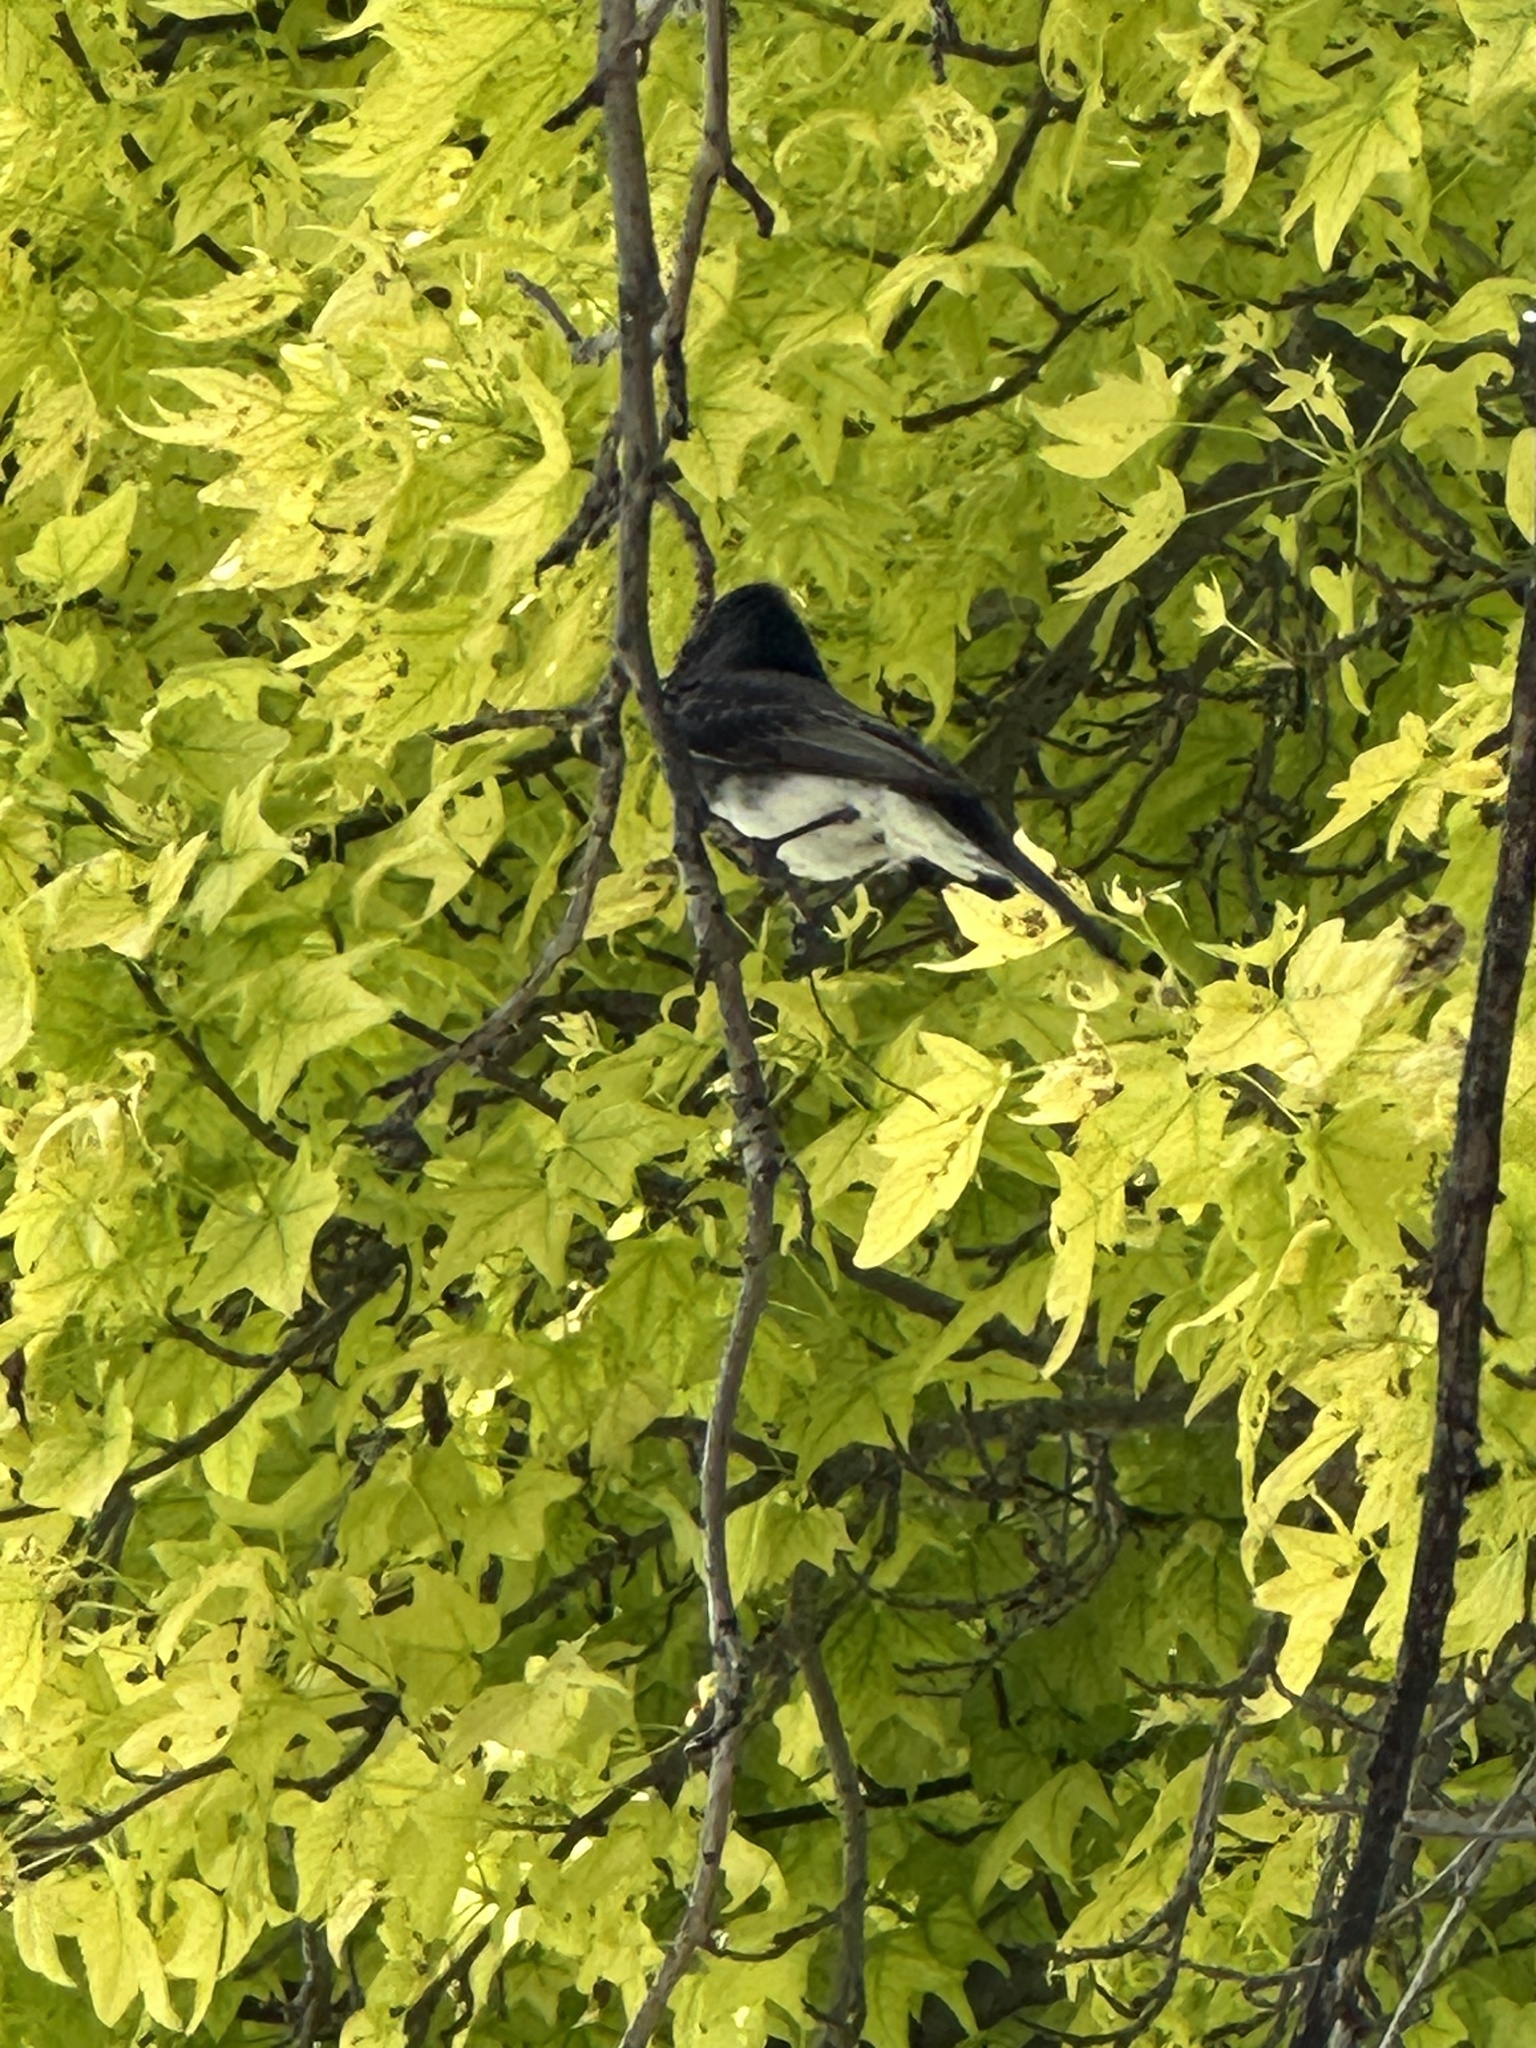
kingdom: Animalia
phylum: Chordata
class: Aves
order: Passeriformes
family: Tyrannidae
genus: Sayornis
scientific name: Sayornis nigricans
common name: Black phoebe
